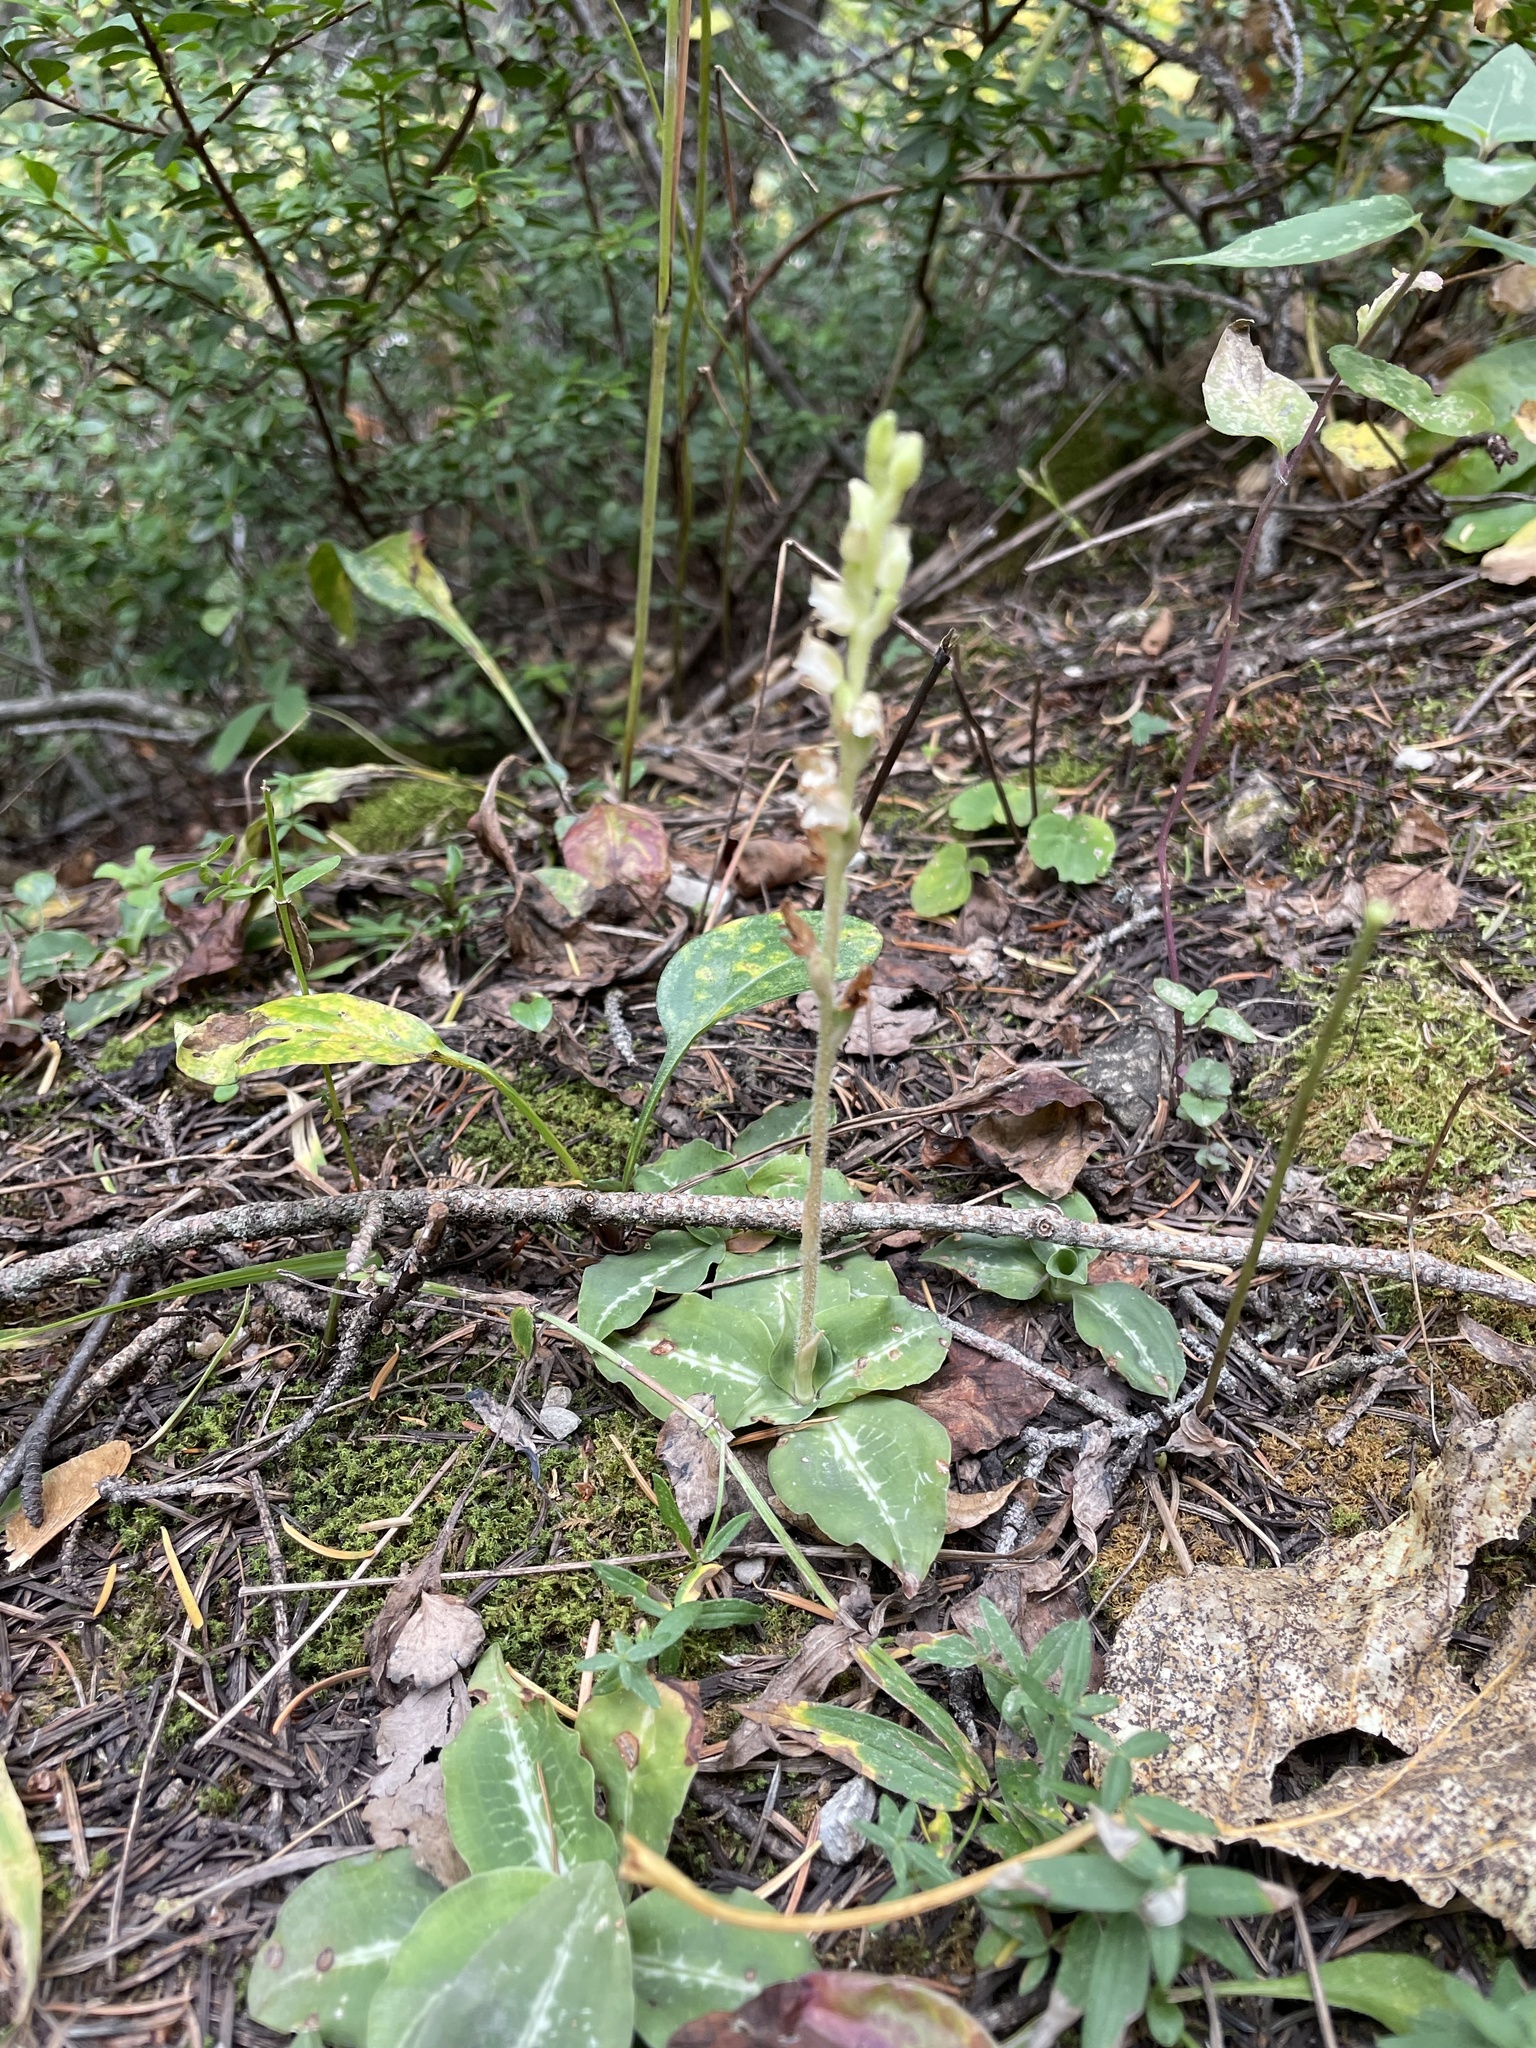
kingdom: Plantae
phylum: Tracheophyta
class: Liliopsida
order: Asparagales
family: Orchidaceae
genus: Goodyera
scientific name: Goodyera oblongifolia
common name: Giant rattlesnake-plantain
